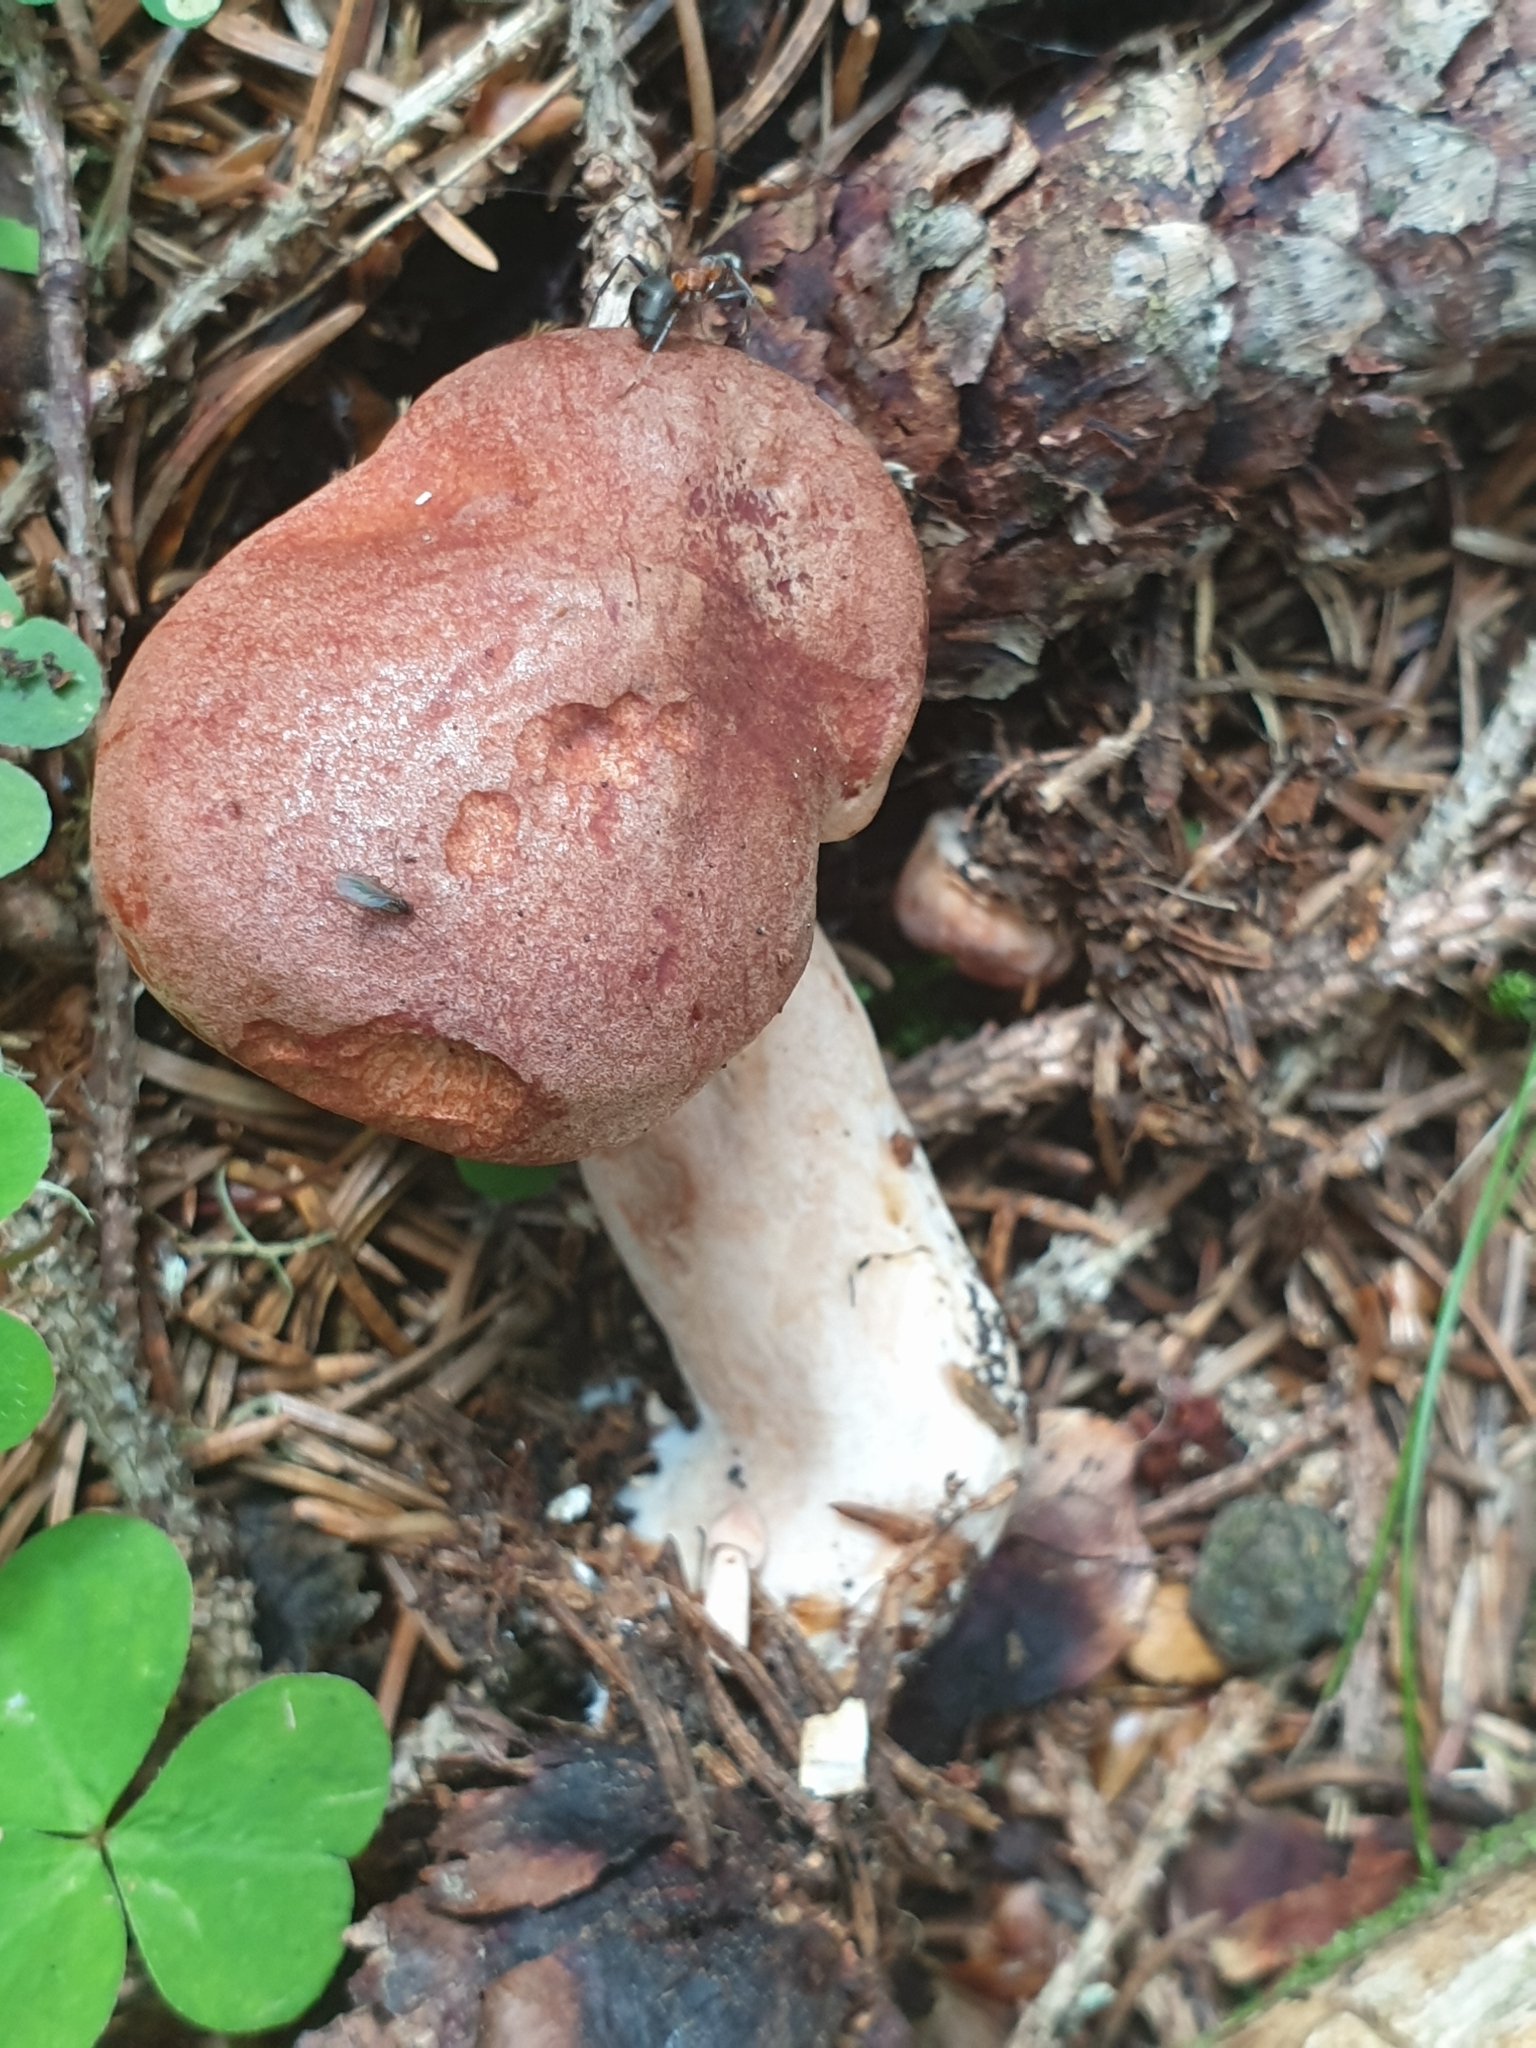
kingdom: Fungi
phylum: Basidiomycota
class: Agaricomycetes
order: Russulales
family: Russulaceae
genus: Lactarius
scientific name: Lactarius rufus
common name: Rufous milk-cap
